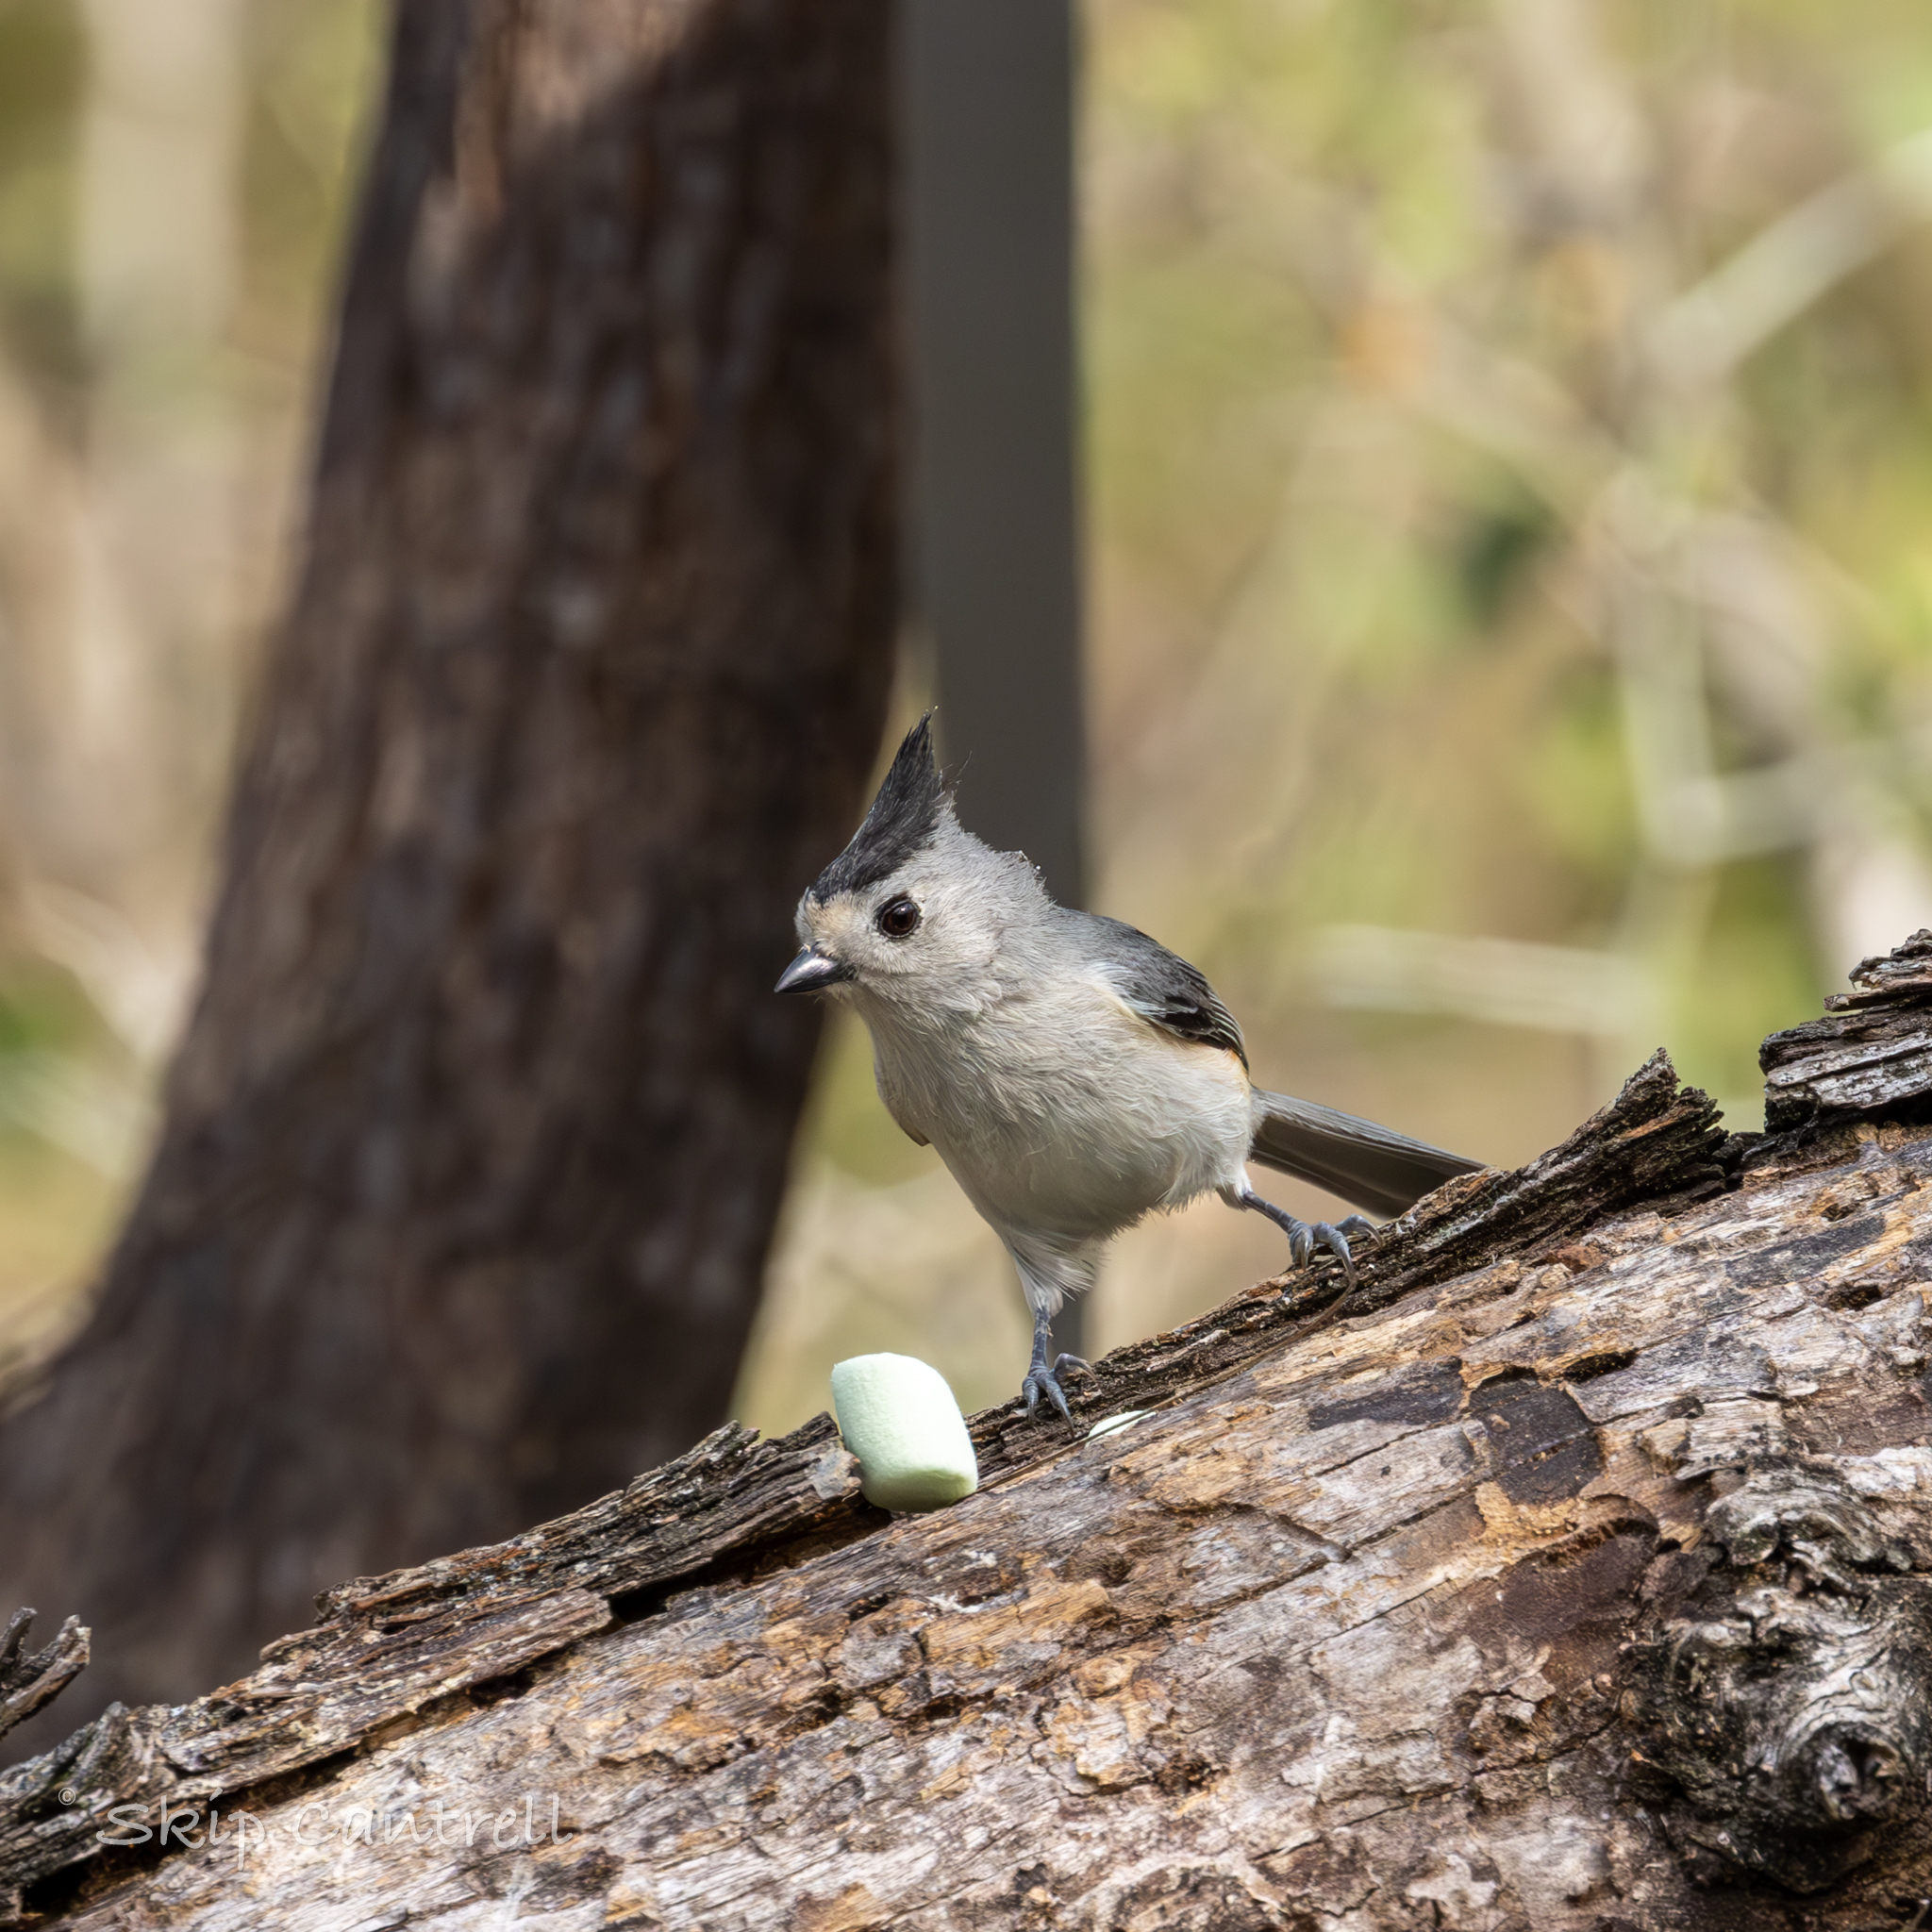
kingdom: Animalia
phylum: Chordata
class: Aves
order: Passeriformes
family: Paridae
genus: Baeolophus
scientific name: Baeolophus atricristatus
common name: Black-crested titmouse
